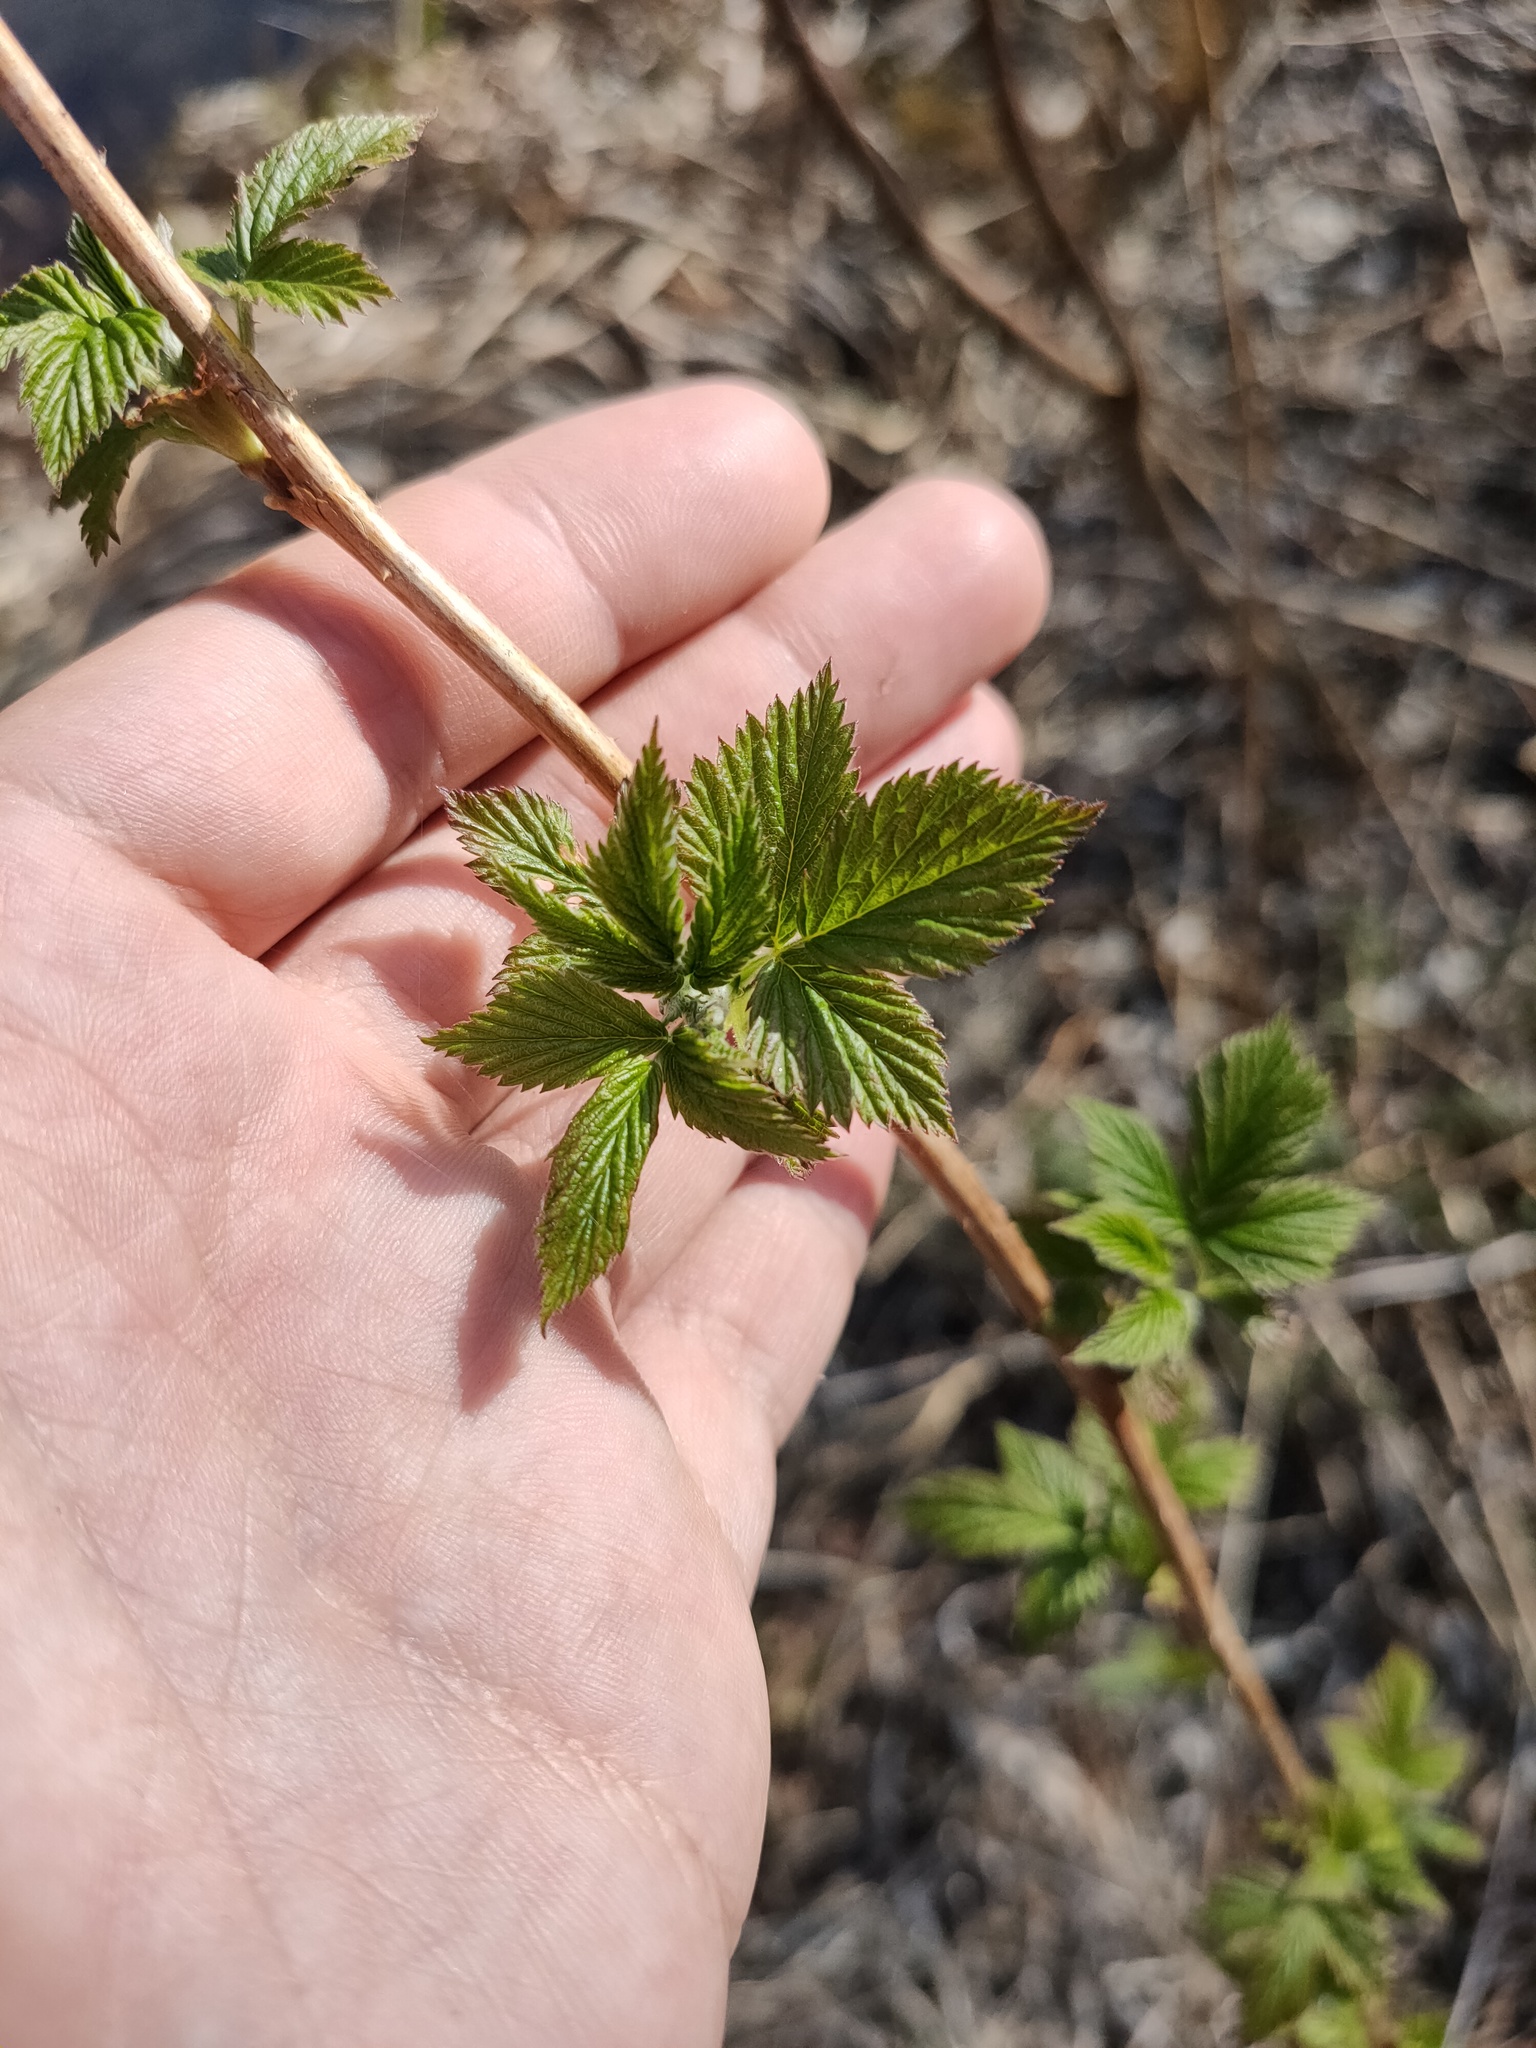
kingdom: Plantae
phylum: Tracheophyta
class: Magnoliopsida
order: Rosales
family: Rosaceae
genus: Rubus
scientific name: Rubus idaeus
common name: Raspberry
